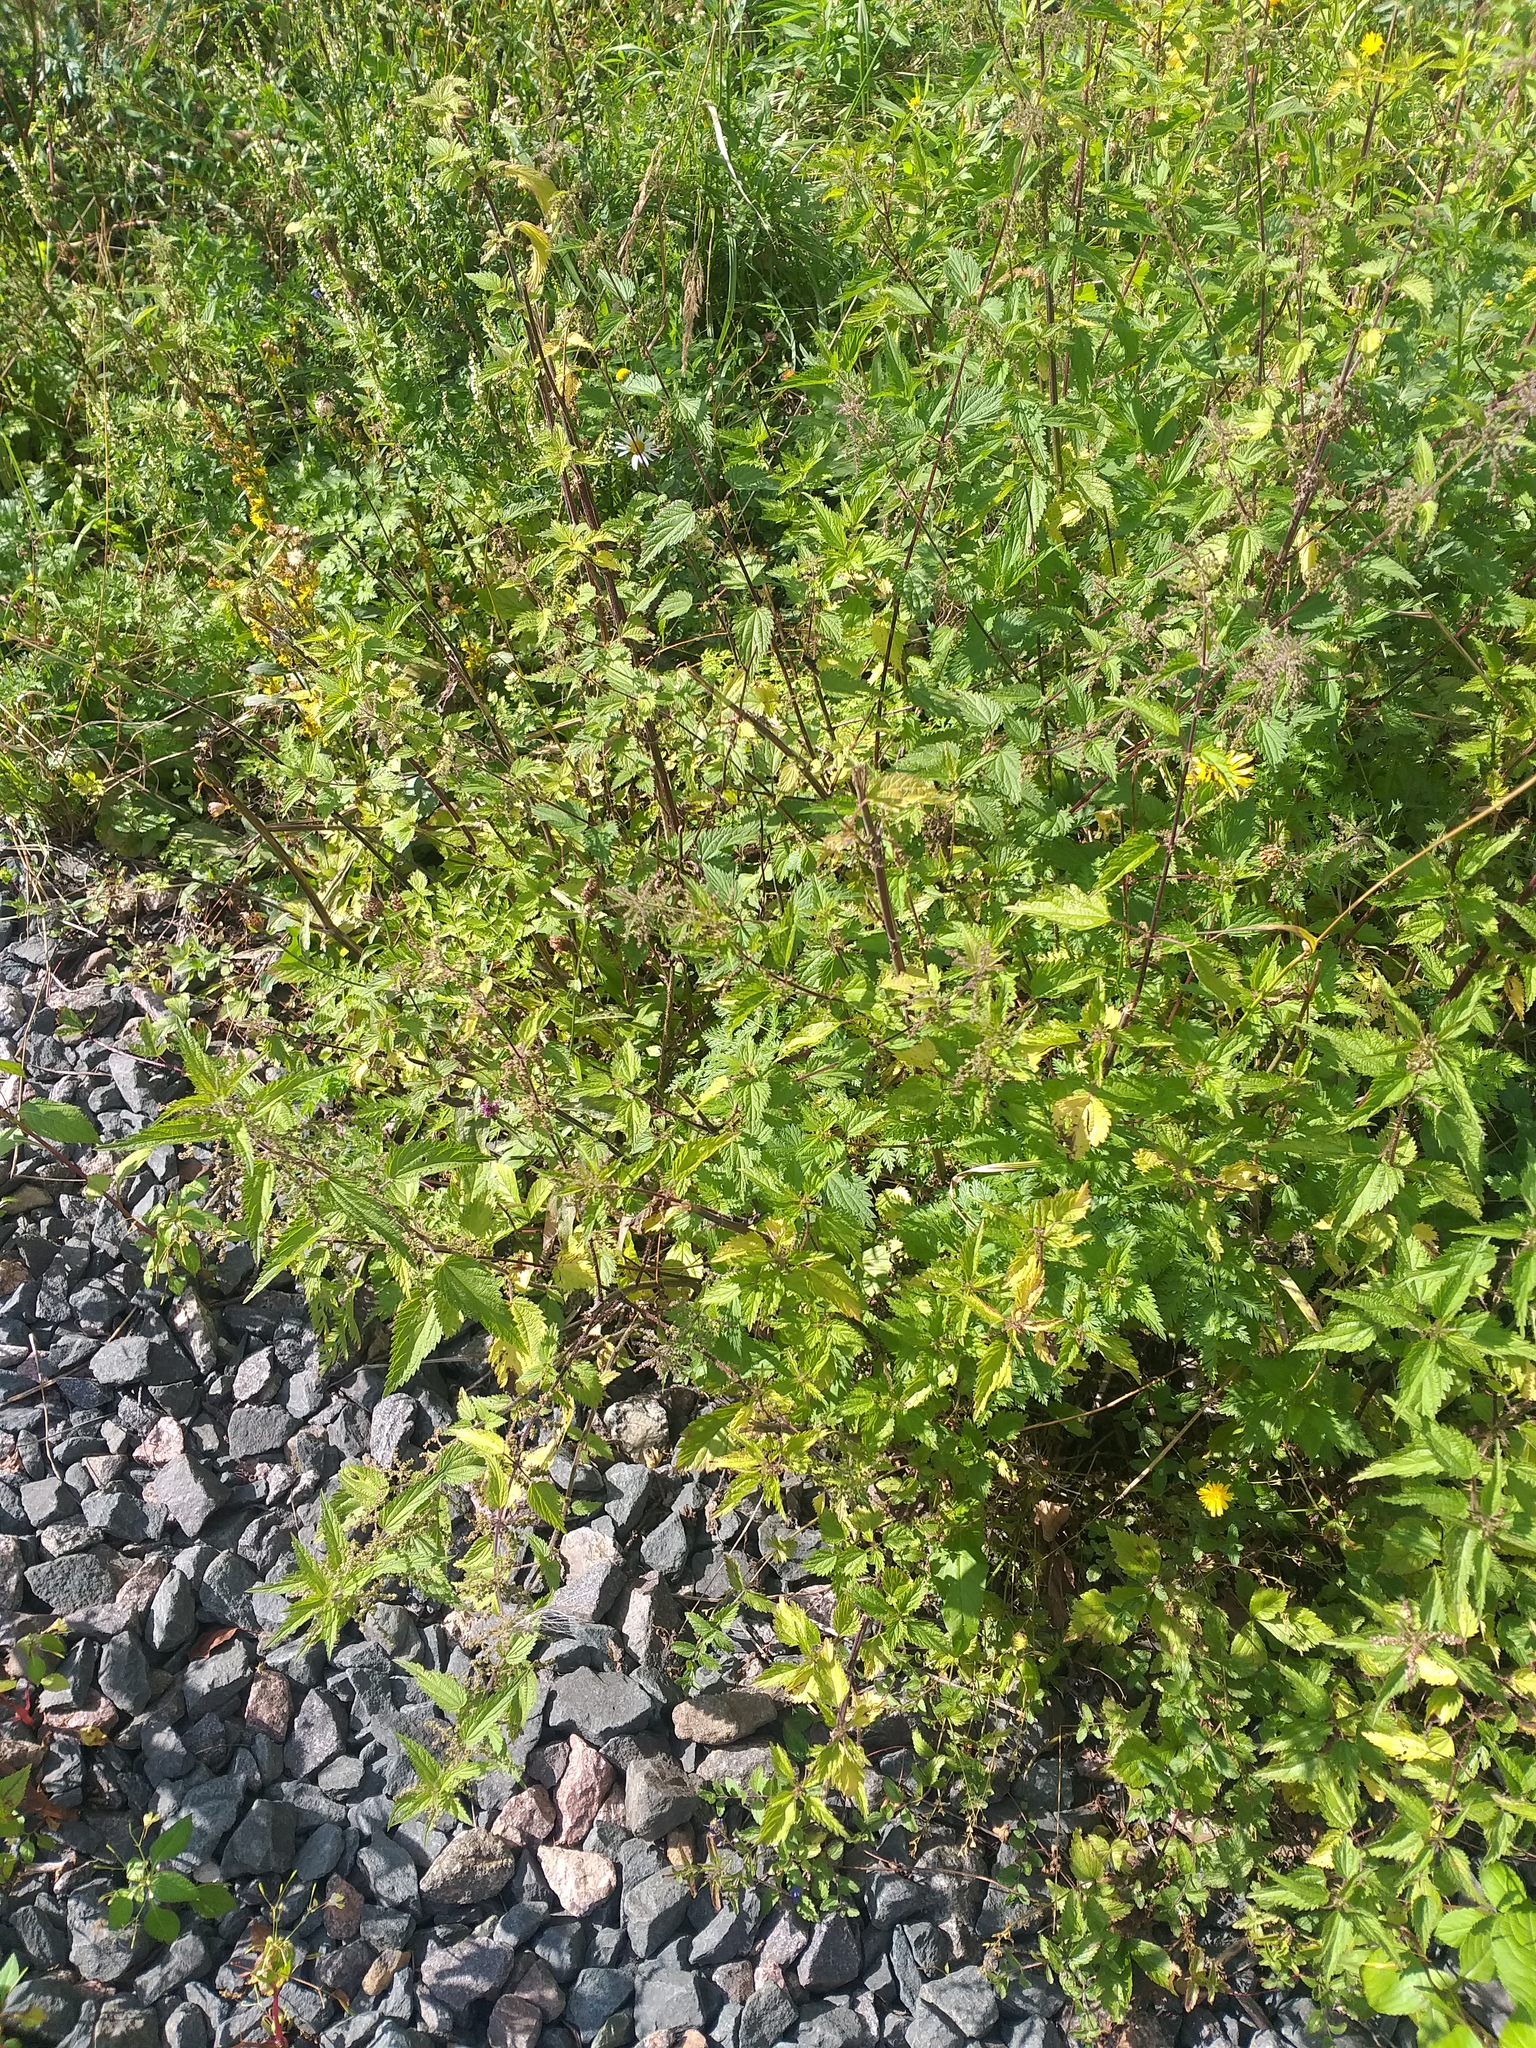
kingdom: Plantae
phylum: Tracheophyta
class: Magnoliopsida
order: Rosales
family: Urticaceae
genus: Urtica
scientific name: Urtica dioica
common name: Common nettle
